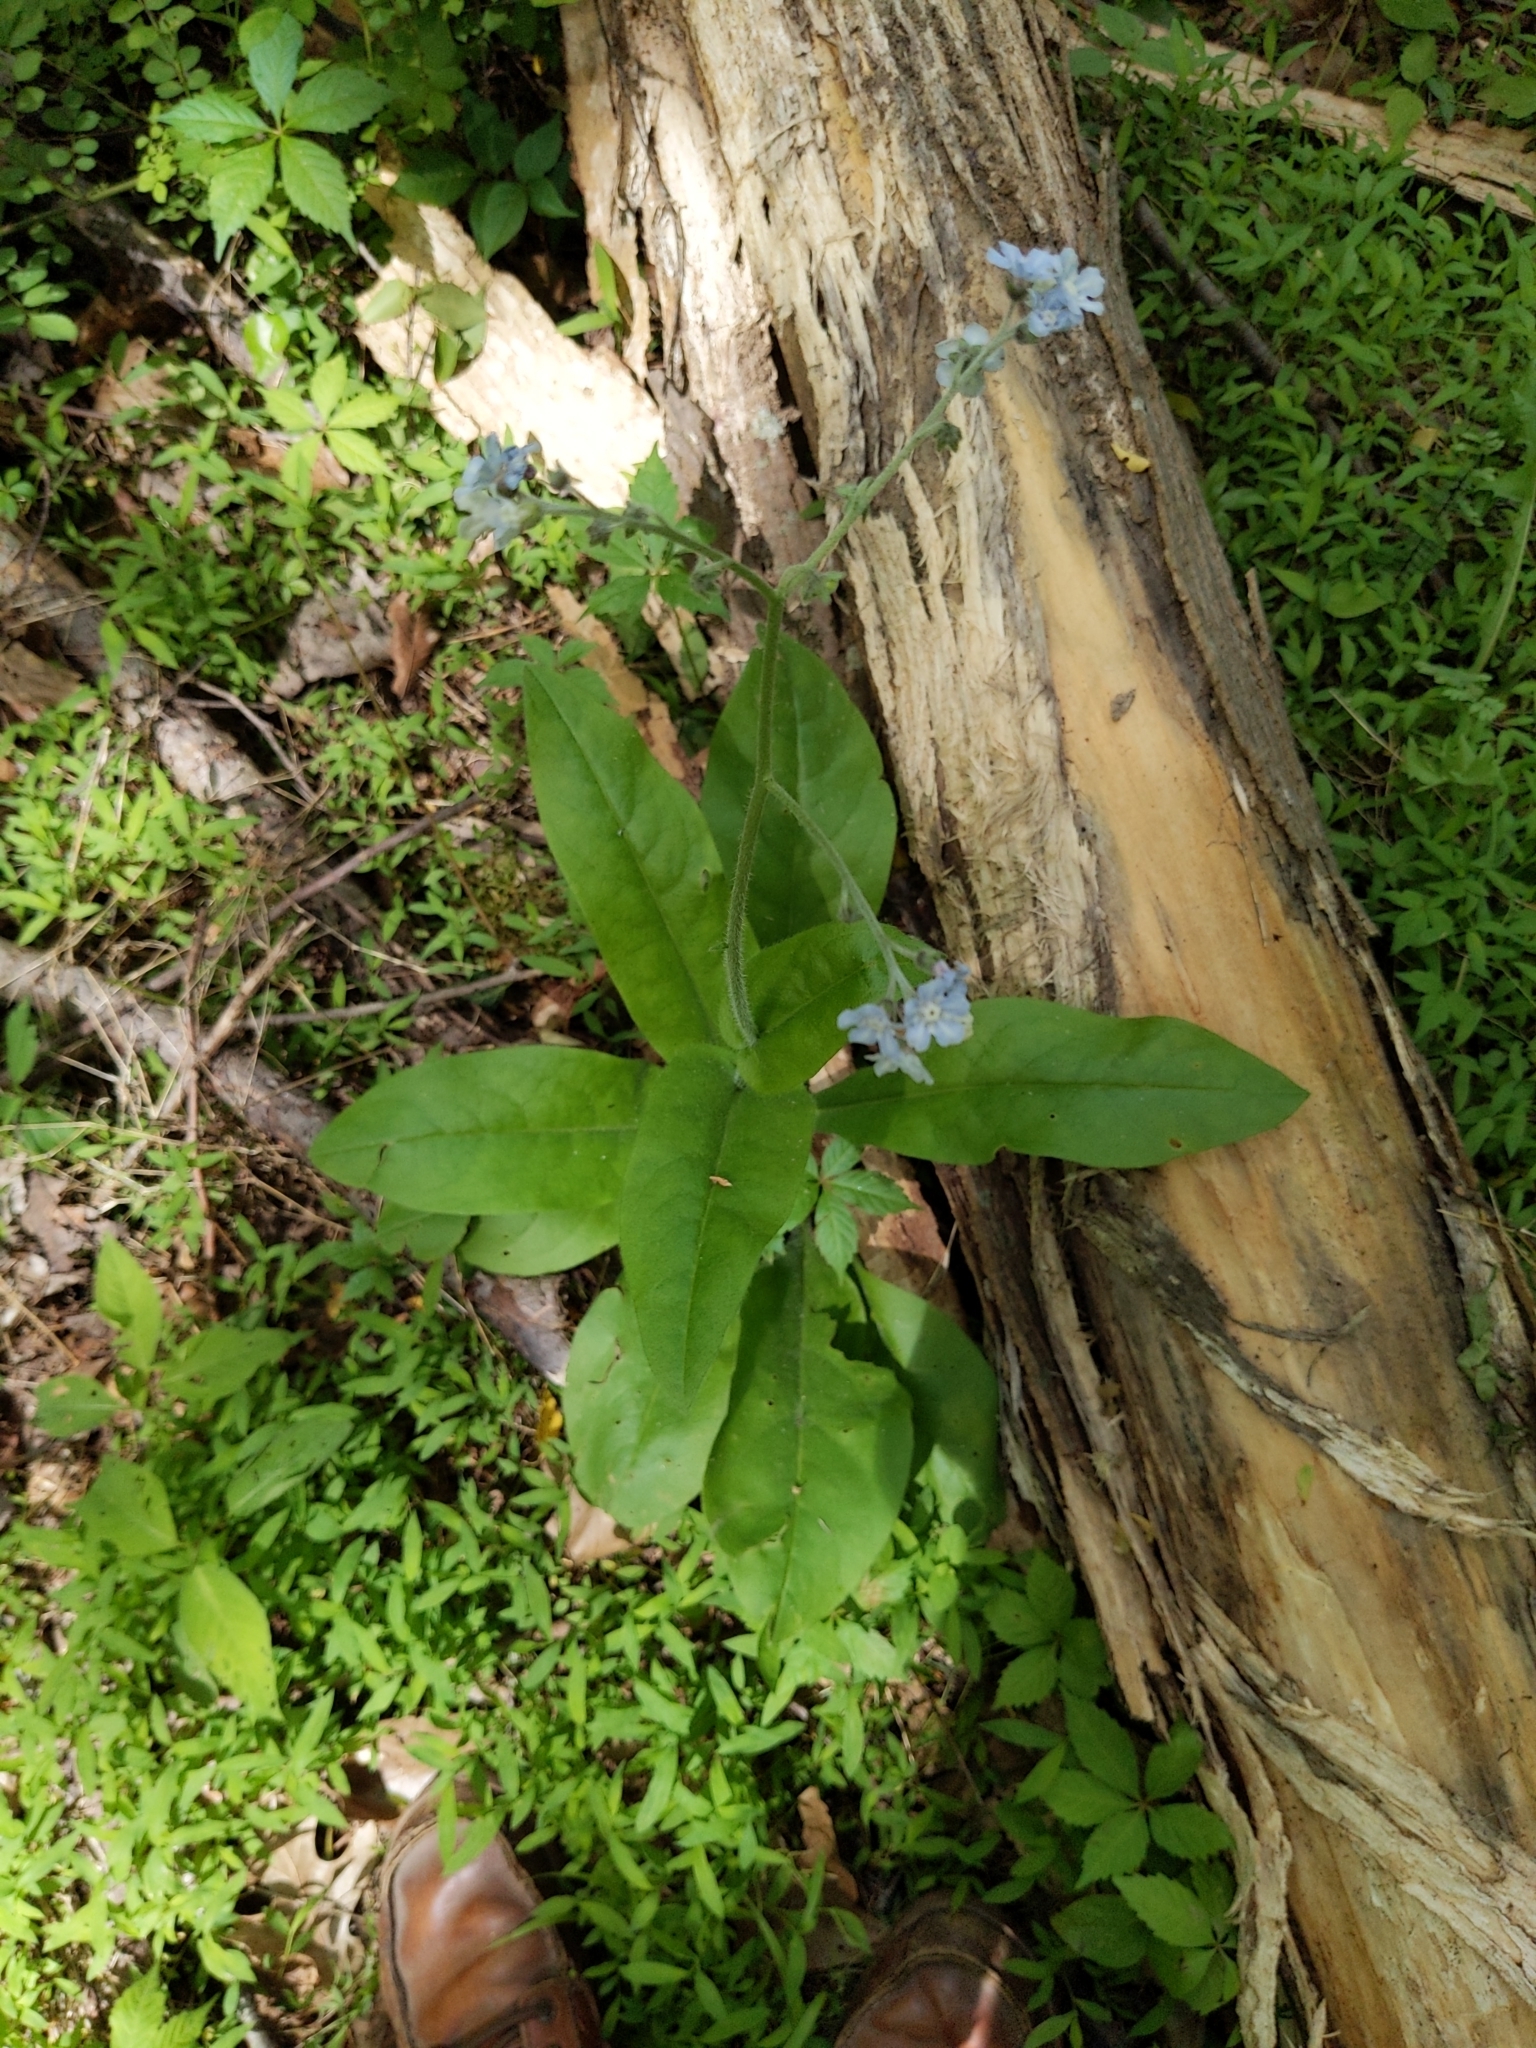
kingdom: Plantae
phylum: Tracheophyta
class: Magnoliopsida
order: Boraginales
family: Boraginaceae
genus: Andersonglossum
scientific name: Andersonglossum virginianum
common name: Wild comfrey
